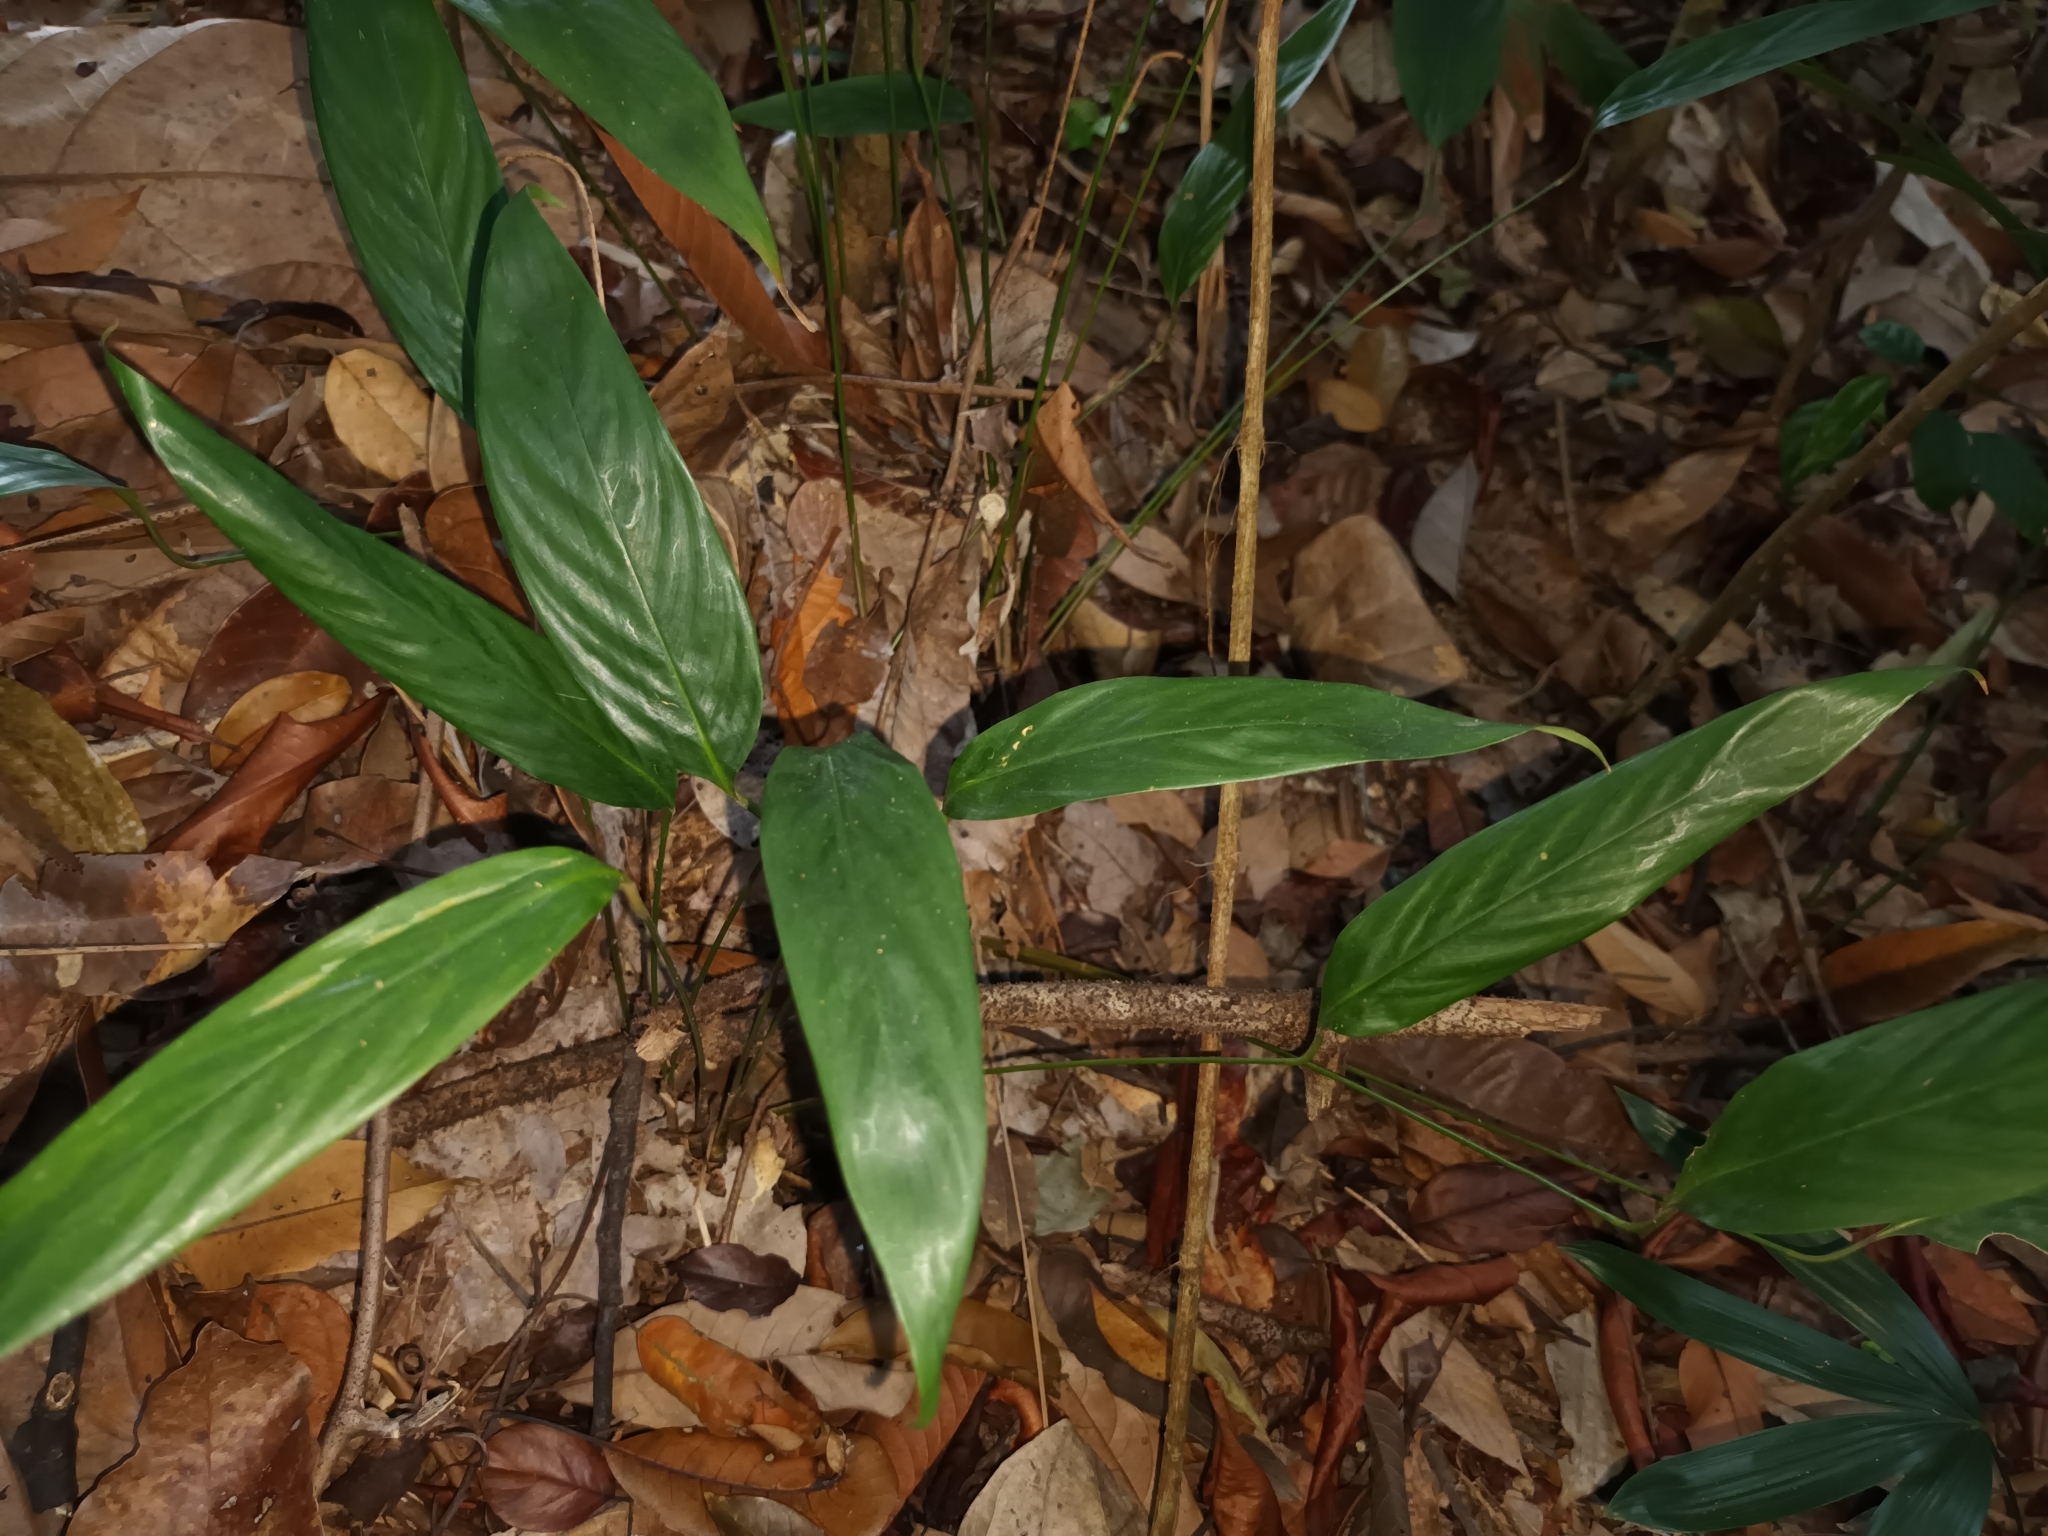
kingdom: Plantae
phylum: Tracheophyta
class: Liliopsida
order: Zingiberales
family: Marantaceae
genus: Stachyphrynium
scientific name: Stachyphrynium latifolium
